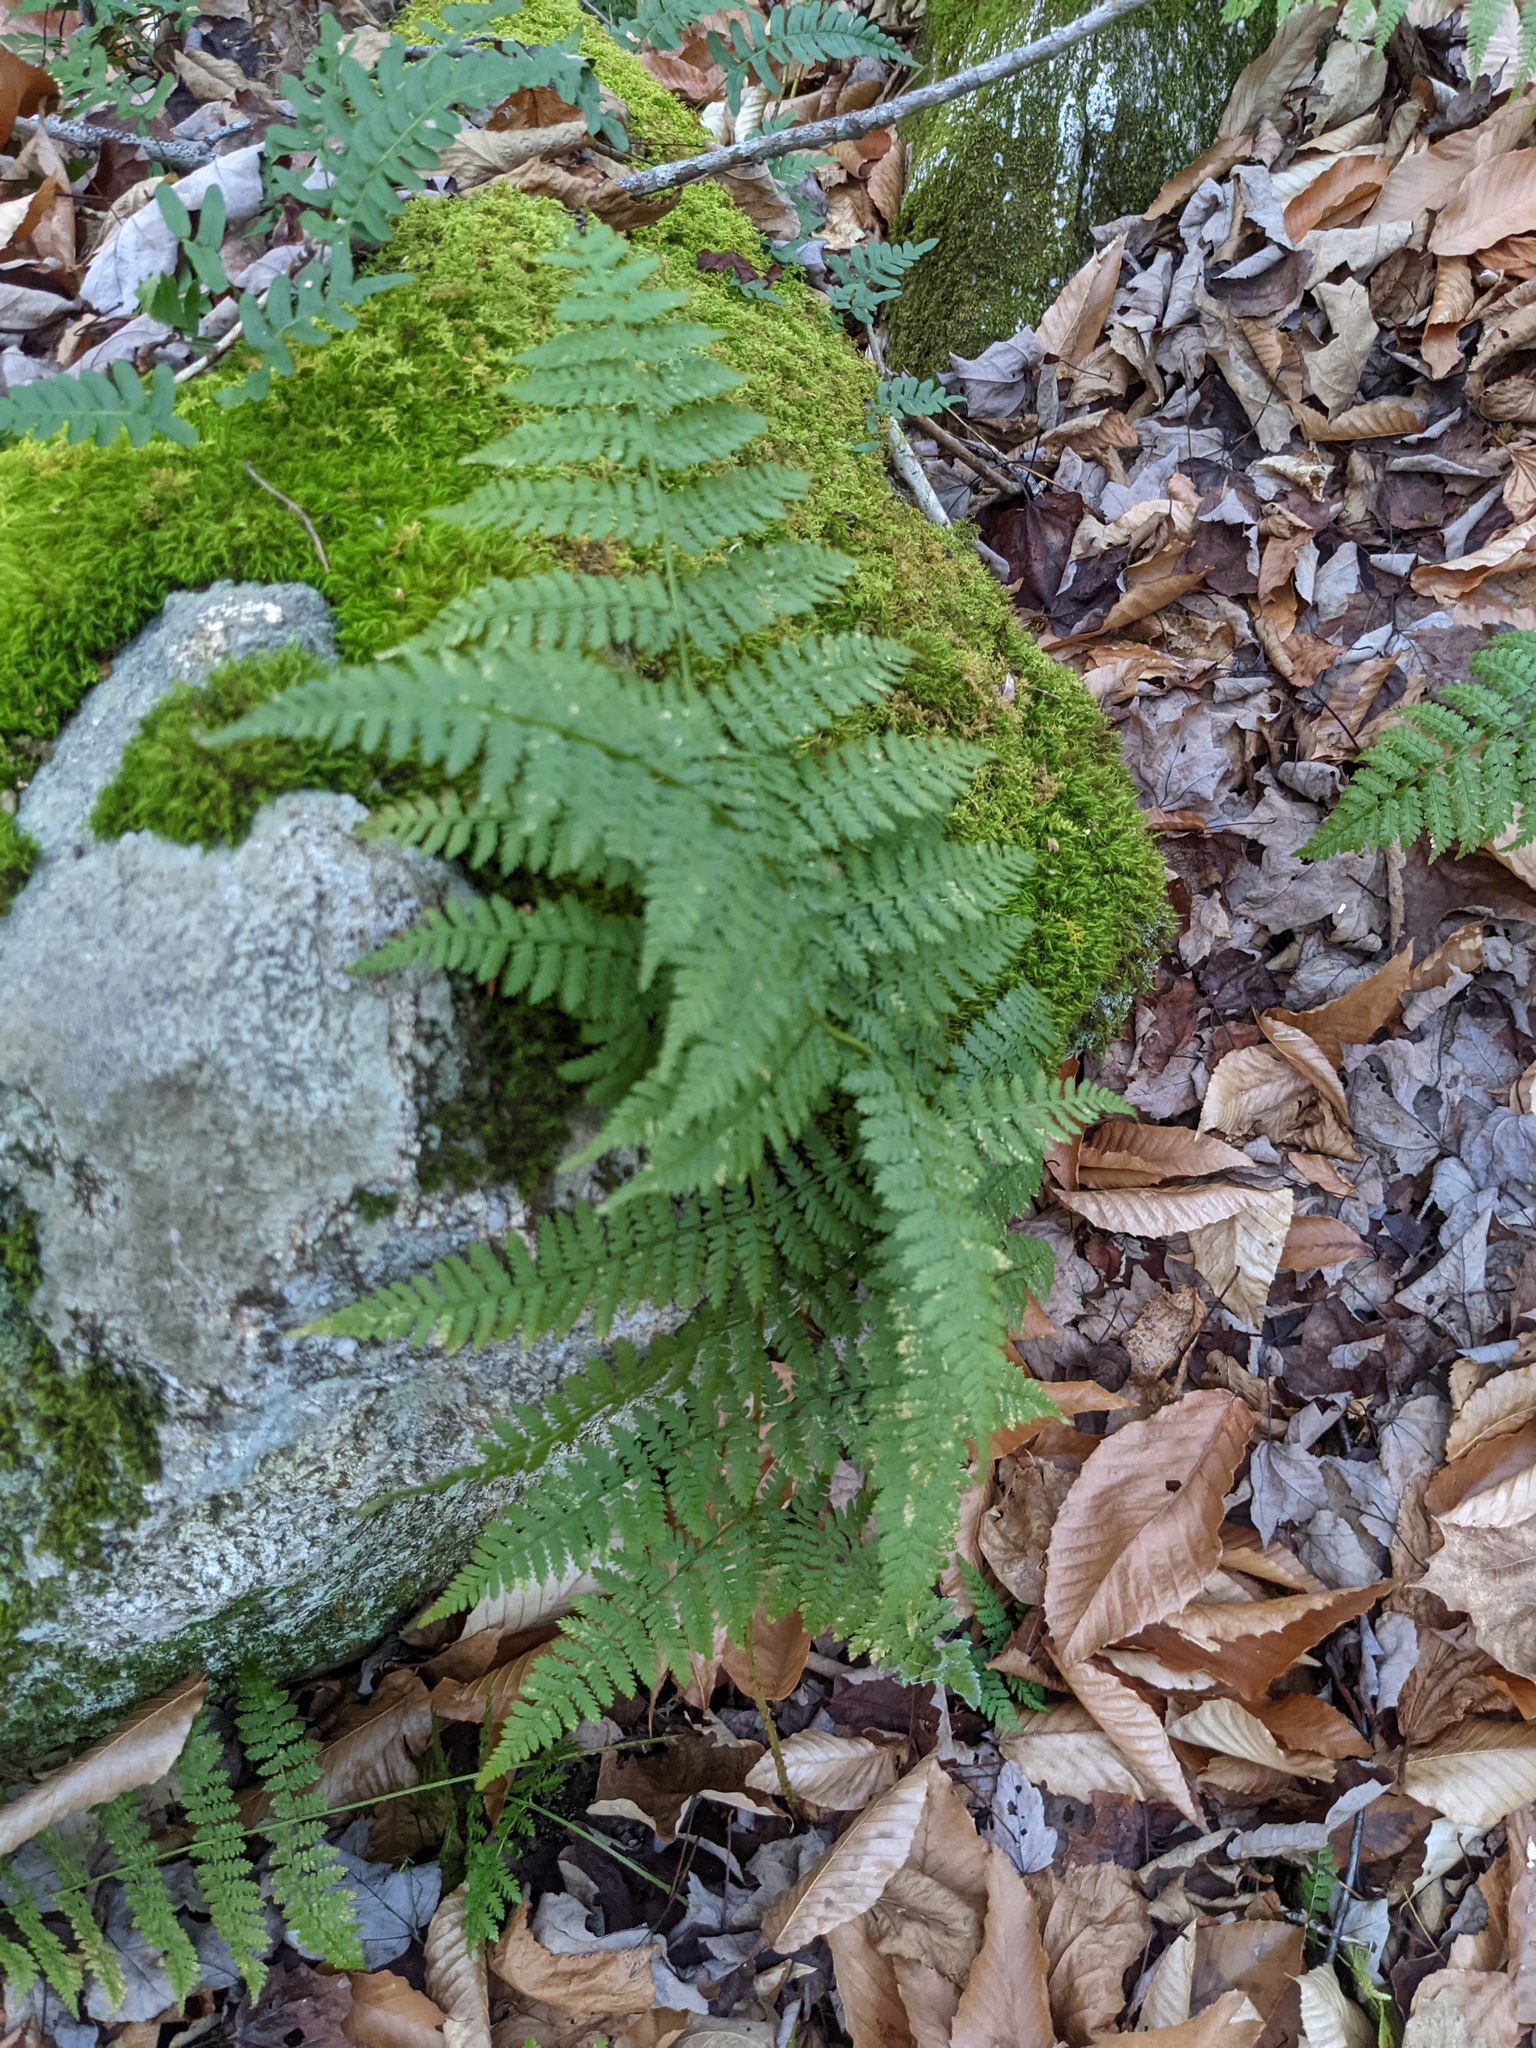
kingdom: Plantae
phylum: Tracheophyta
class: Polypodiopsida
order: Polypodiales
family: Dryopteridaceae
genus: Dryopteris
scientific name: Dryopteris intermedia
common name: Evergreen wood fern
